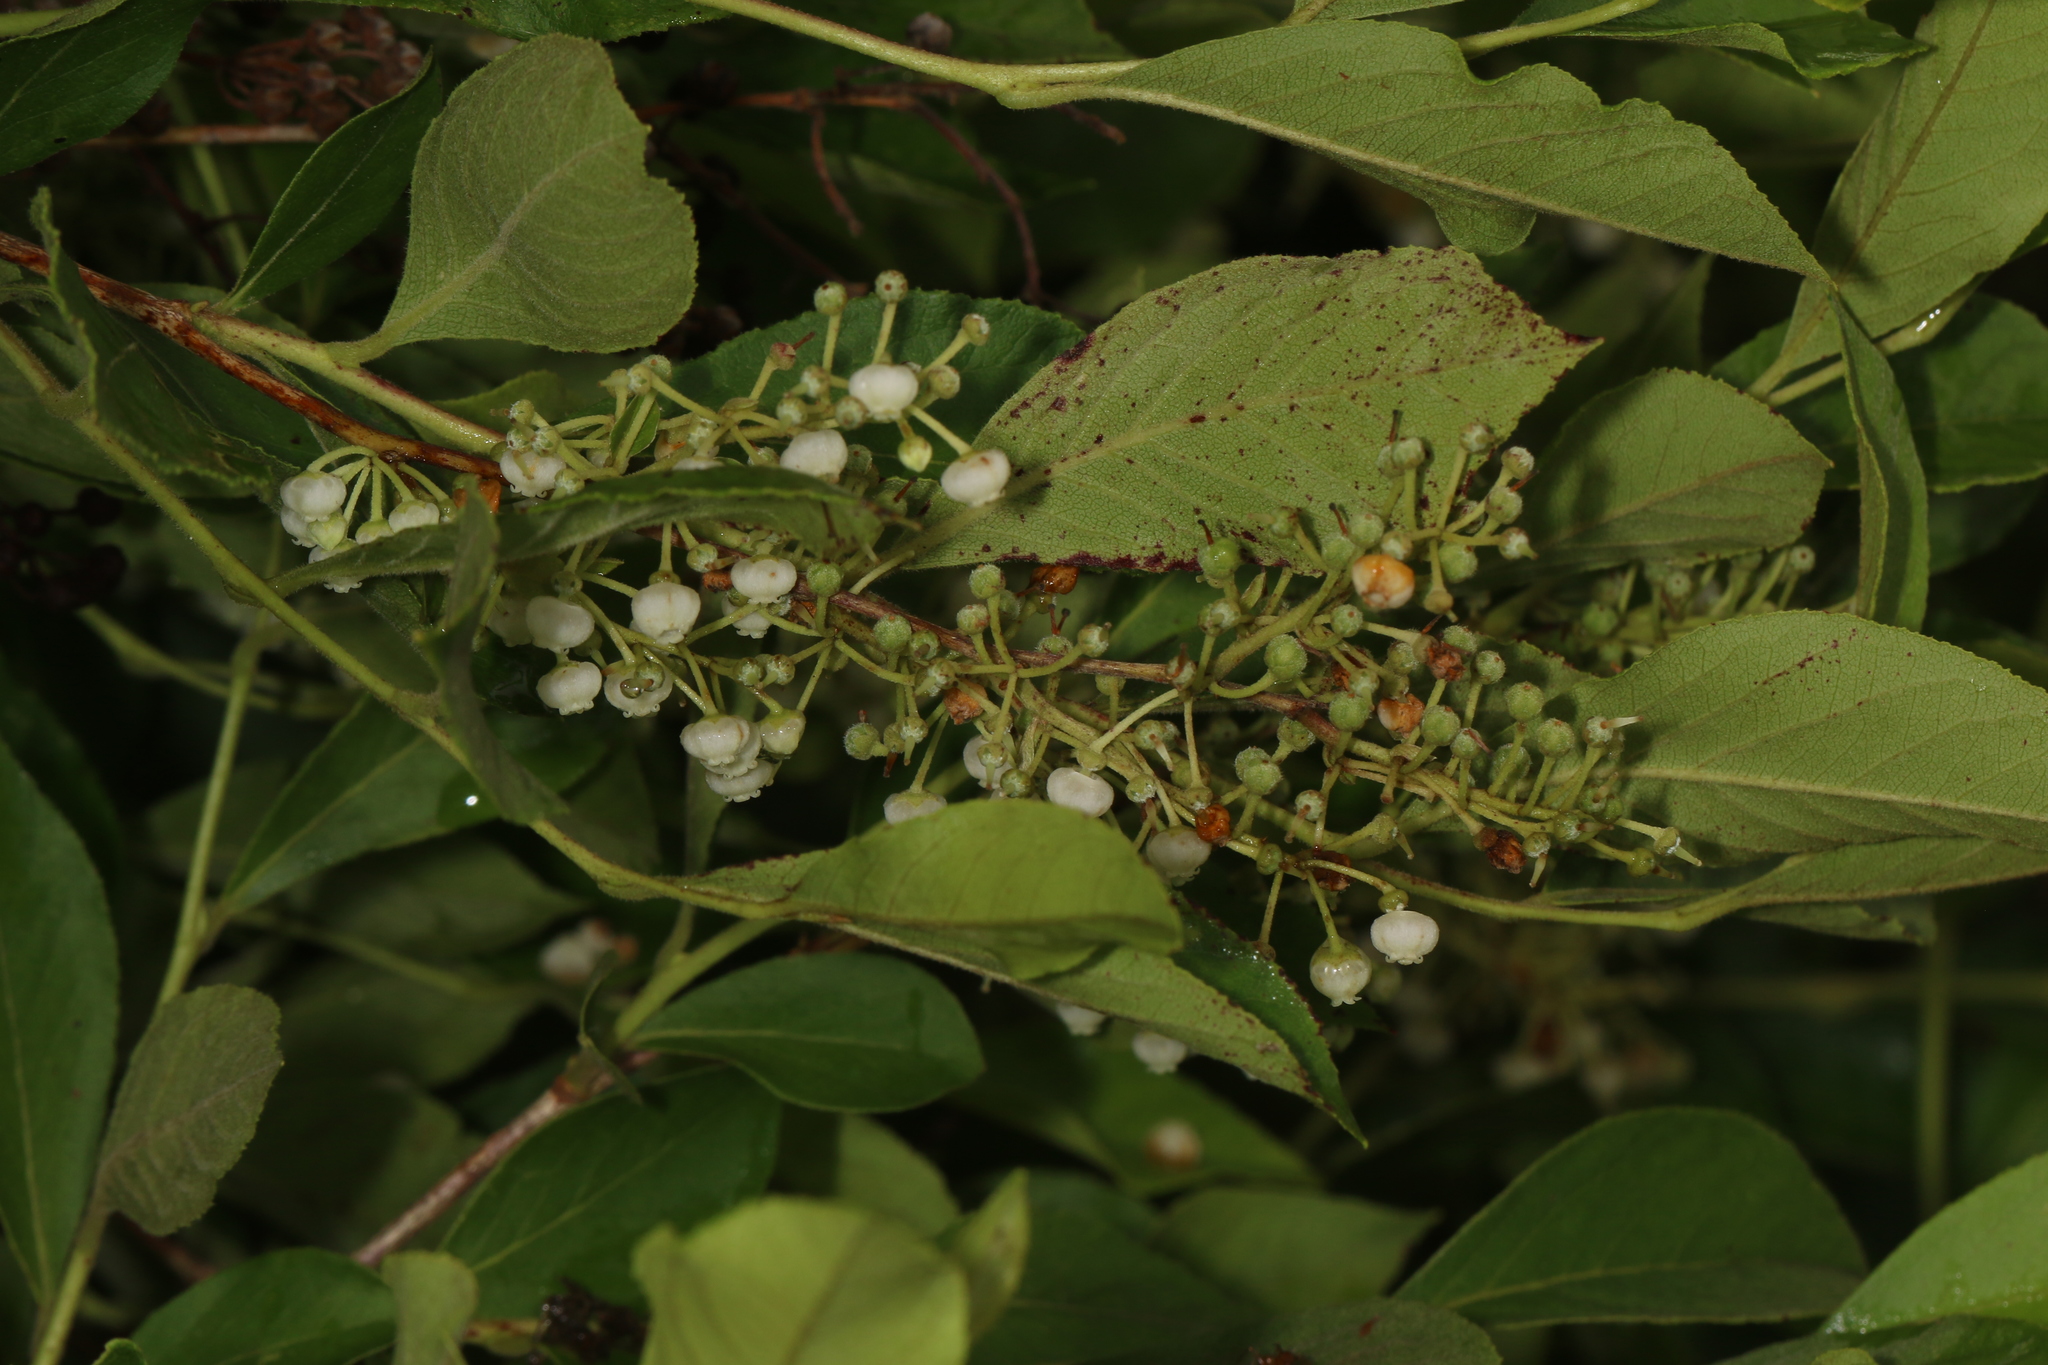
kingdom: Plantae
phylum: Tracheophyta
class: Magnoliopsida
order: Ericales
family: Ericaceae
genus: Lyonia
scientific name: Lyonia ligustrina
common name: Maleberry
